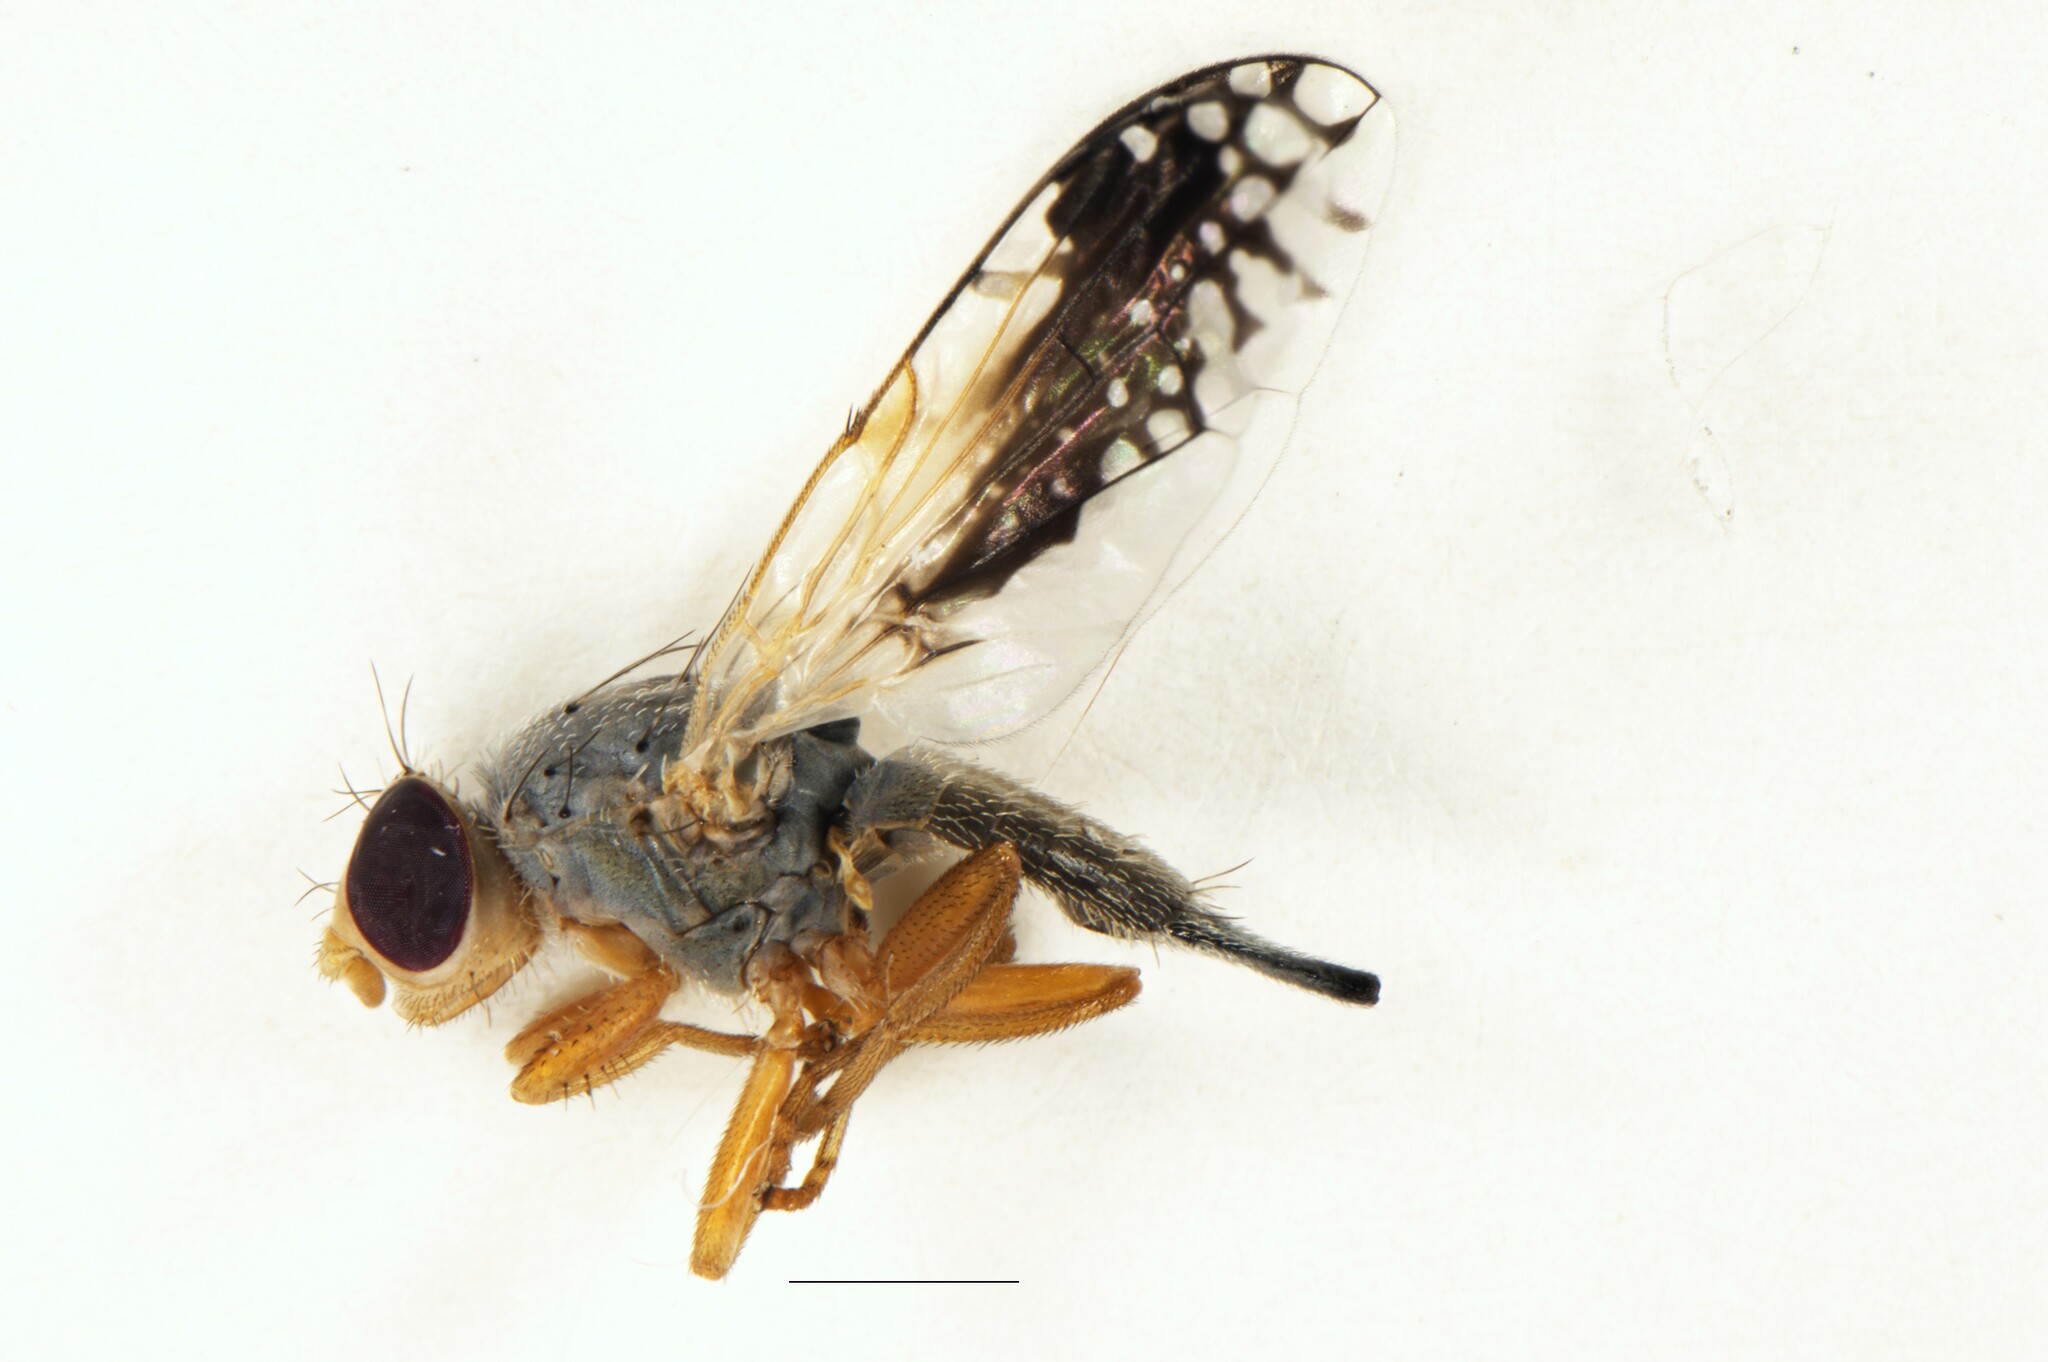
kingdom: Animalia
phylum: Arthropoda
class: Insecta
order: Diptera
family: Tephritidae
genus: Trupanea
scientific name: Trupanea longipennis
